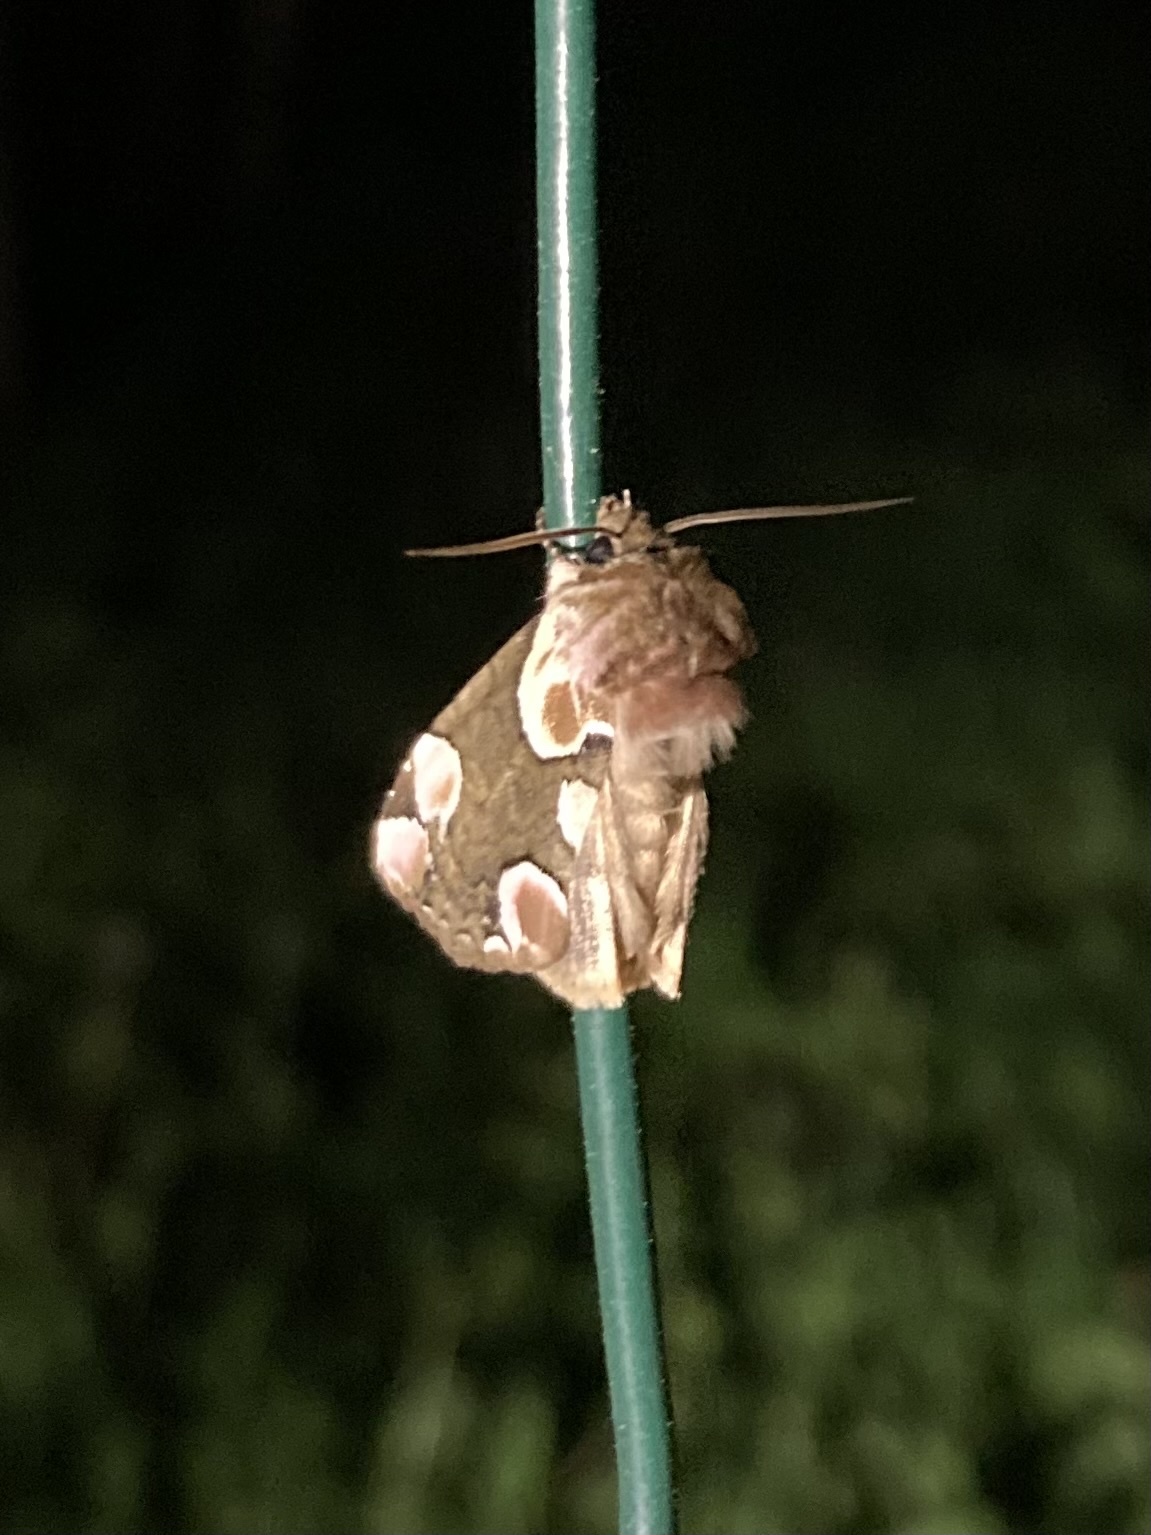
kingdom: Animalia
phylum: Arthropoda
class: Insecta
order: Lepidoptera
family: Drepanidae
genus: Thyatira
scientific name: Thyatira batis
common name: Peach blossom
